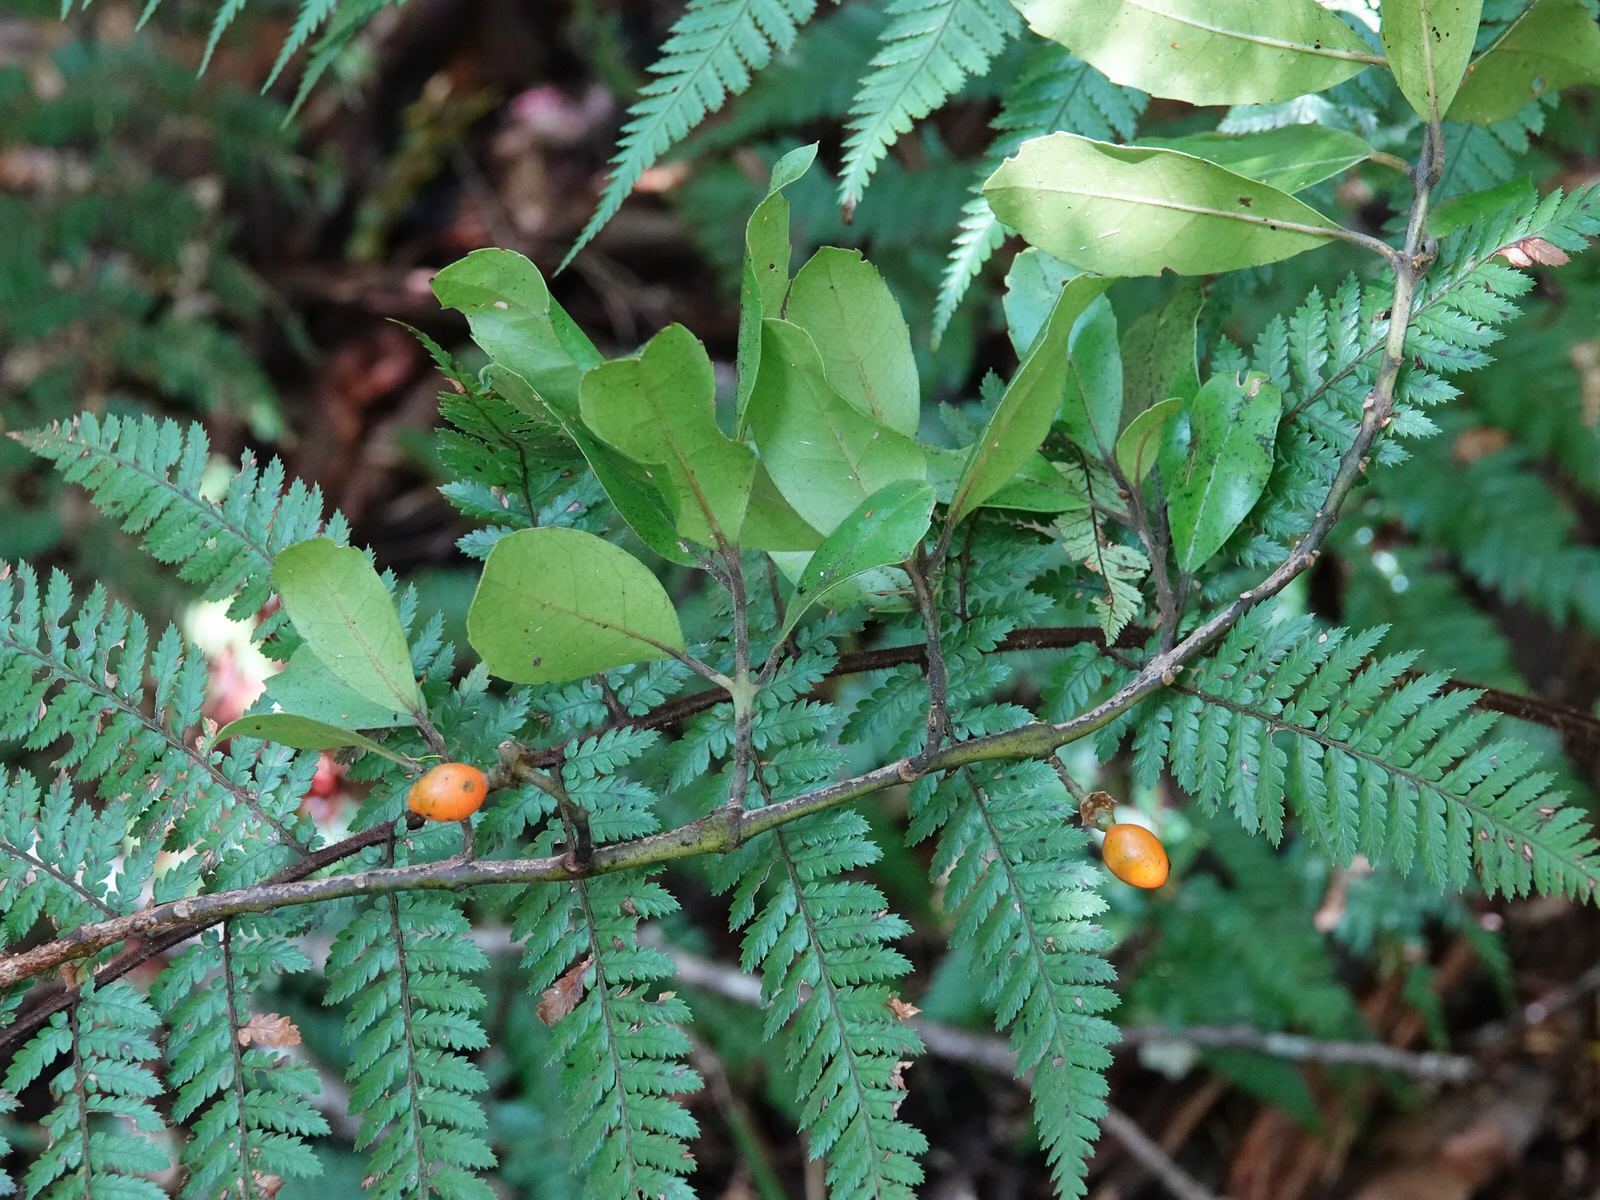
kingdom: Plantae
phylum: Tracheophyta
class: Magnoliopsida
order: Laurales
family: Monimiaceae
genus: Hedycarya
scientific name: Hedycarya arborea
